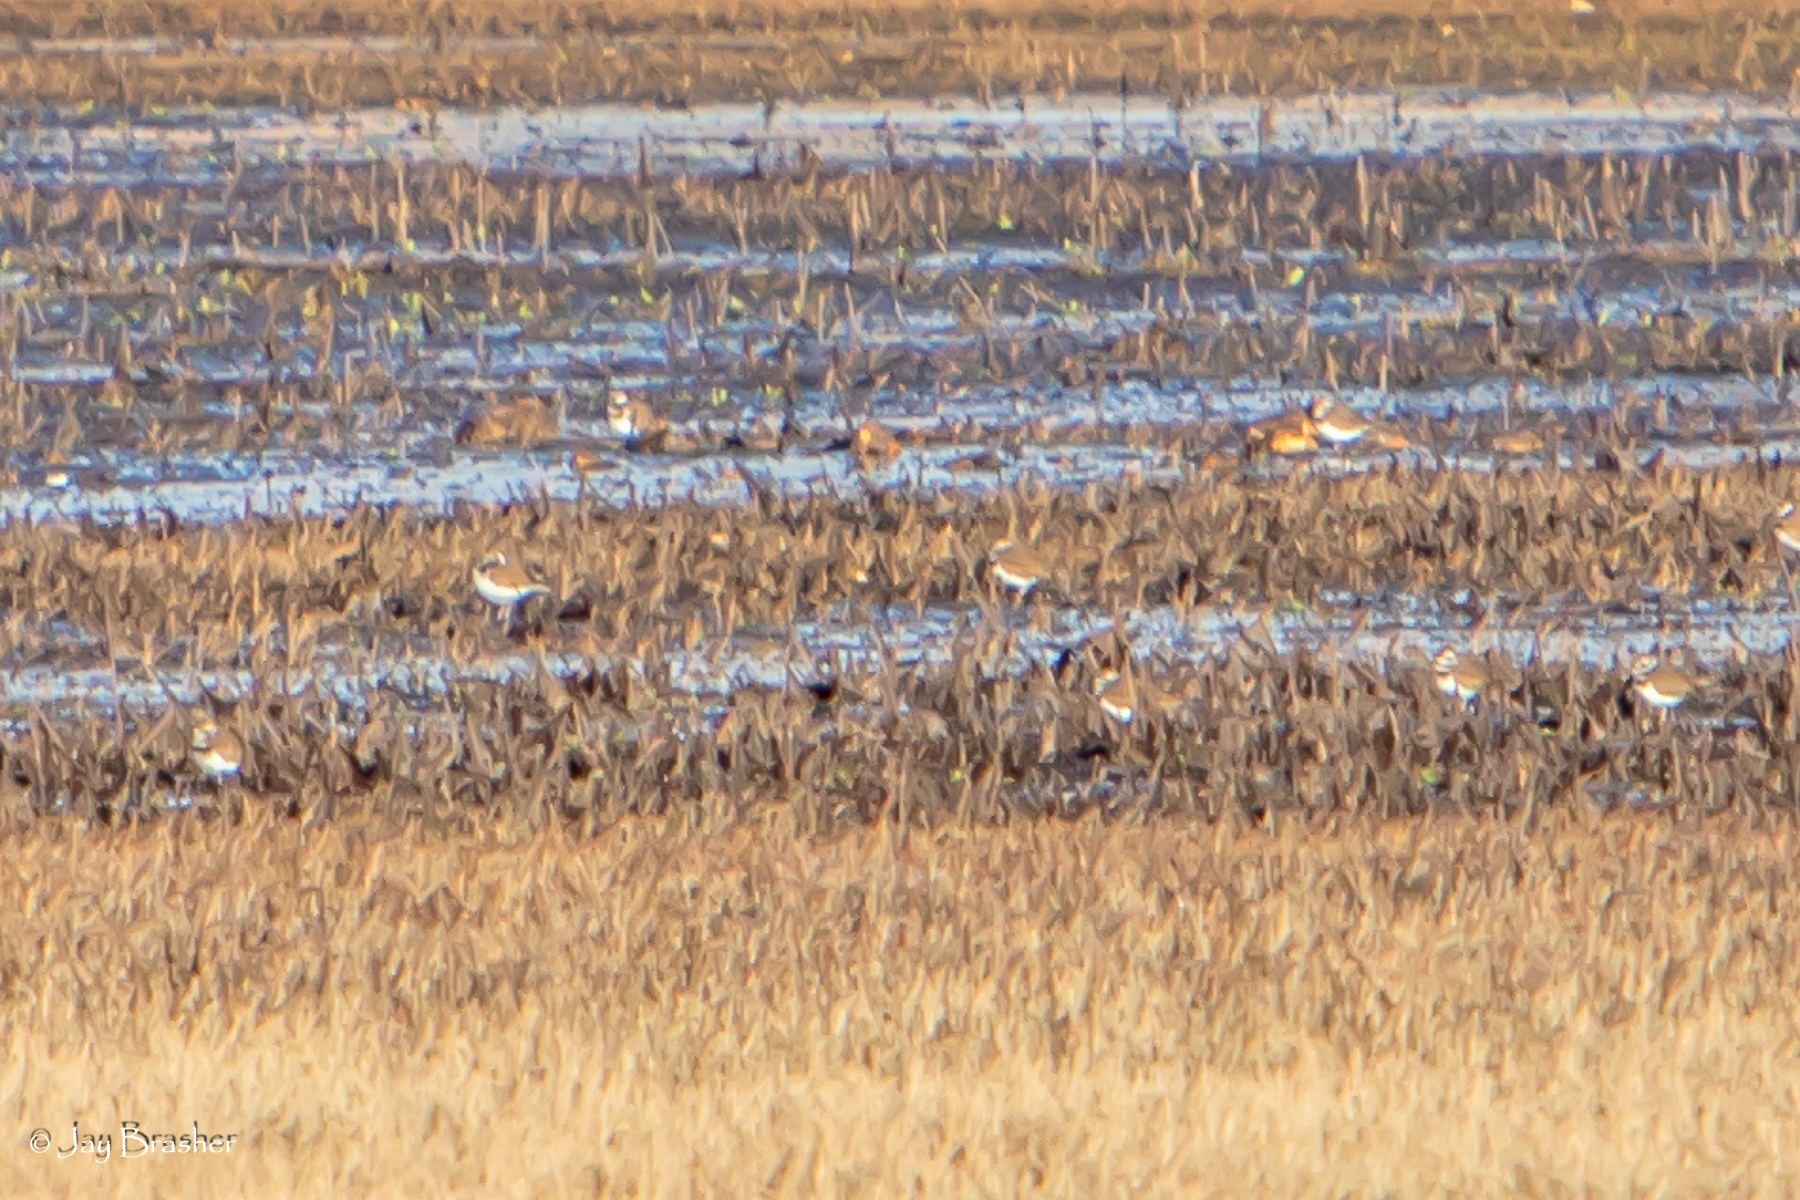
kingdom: Animalia
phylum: Chordata
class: Aves
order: Charadriiformes
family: Charadriidae
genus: Charadrius
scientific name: Charadrius vociferus
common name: Killdeer
